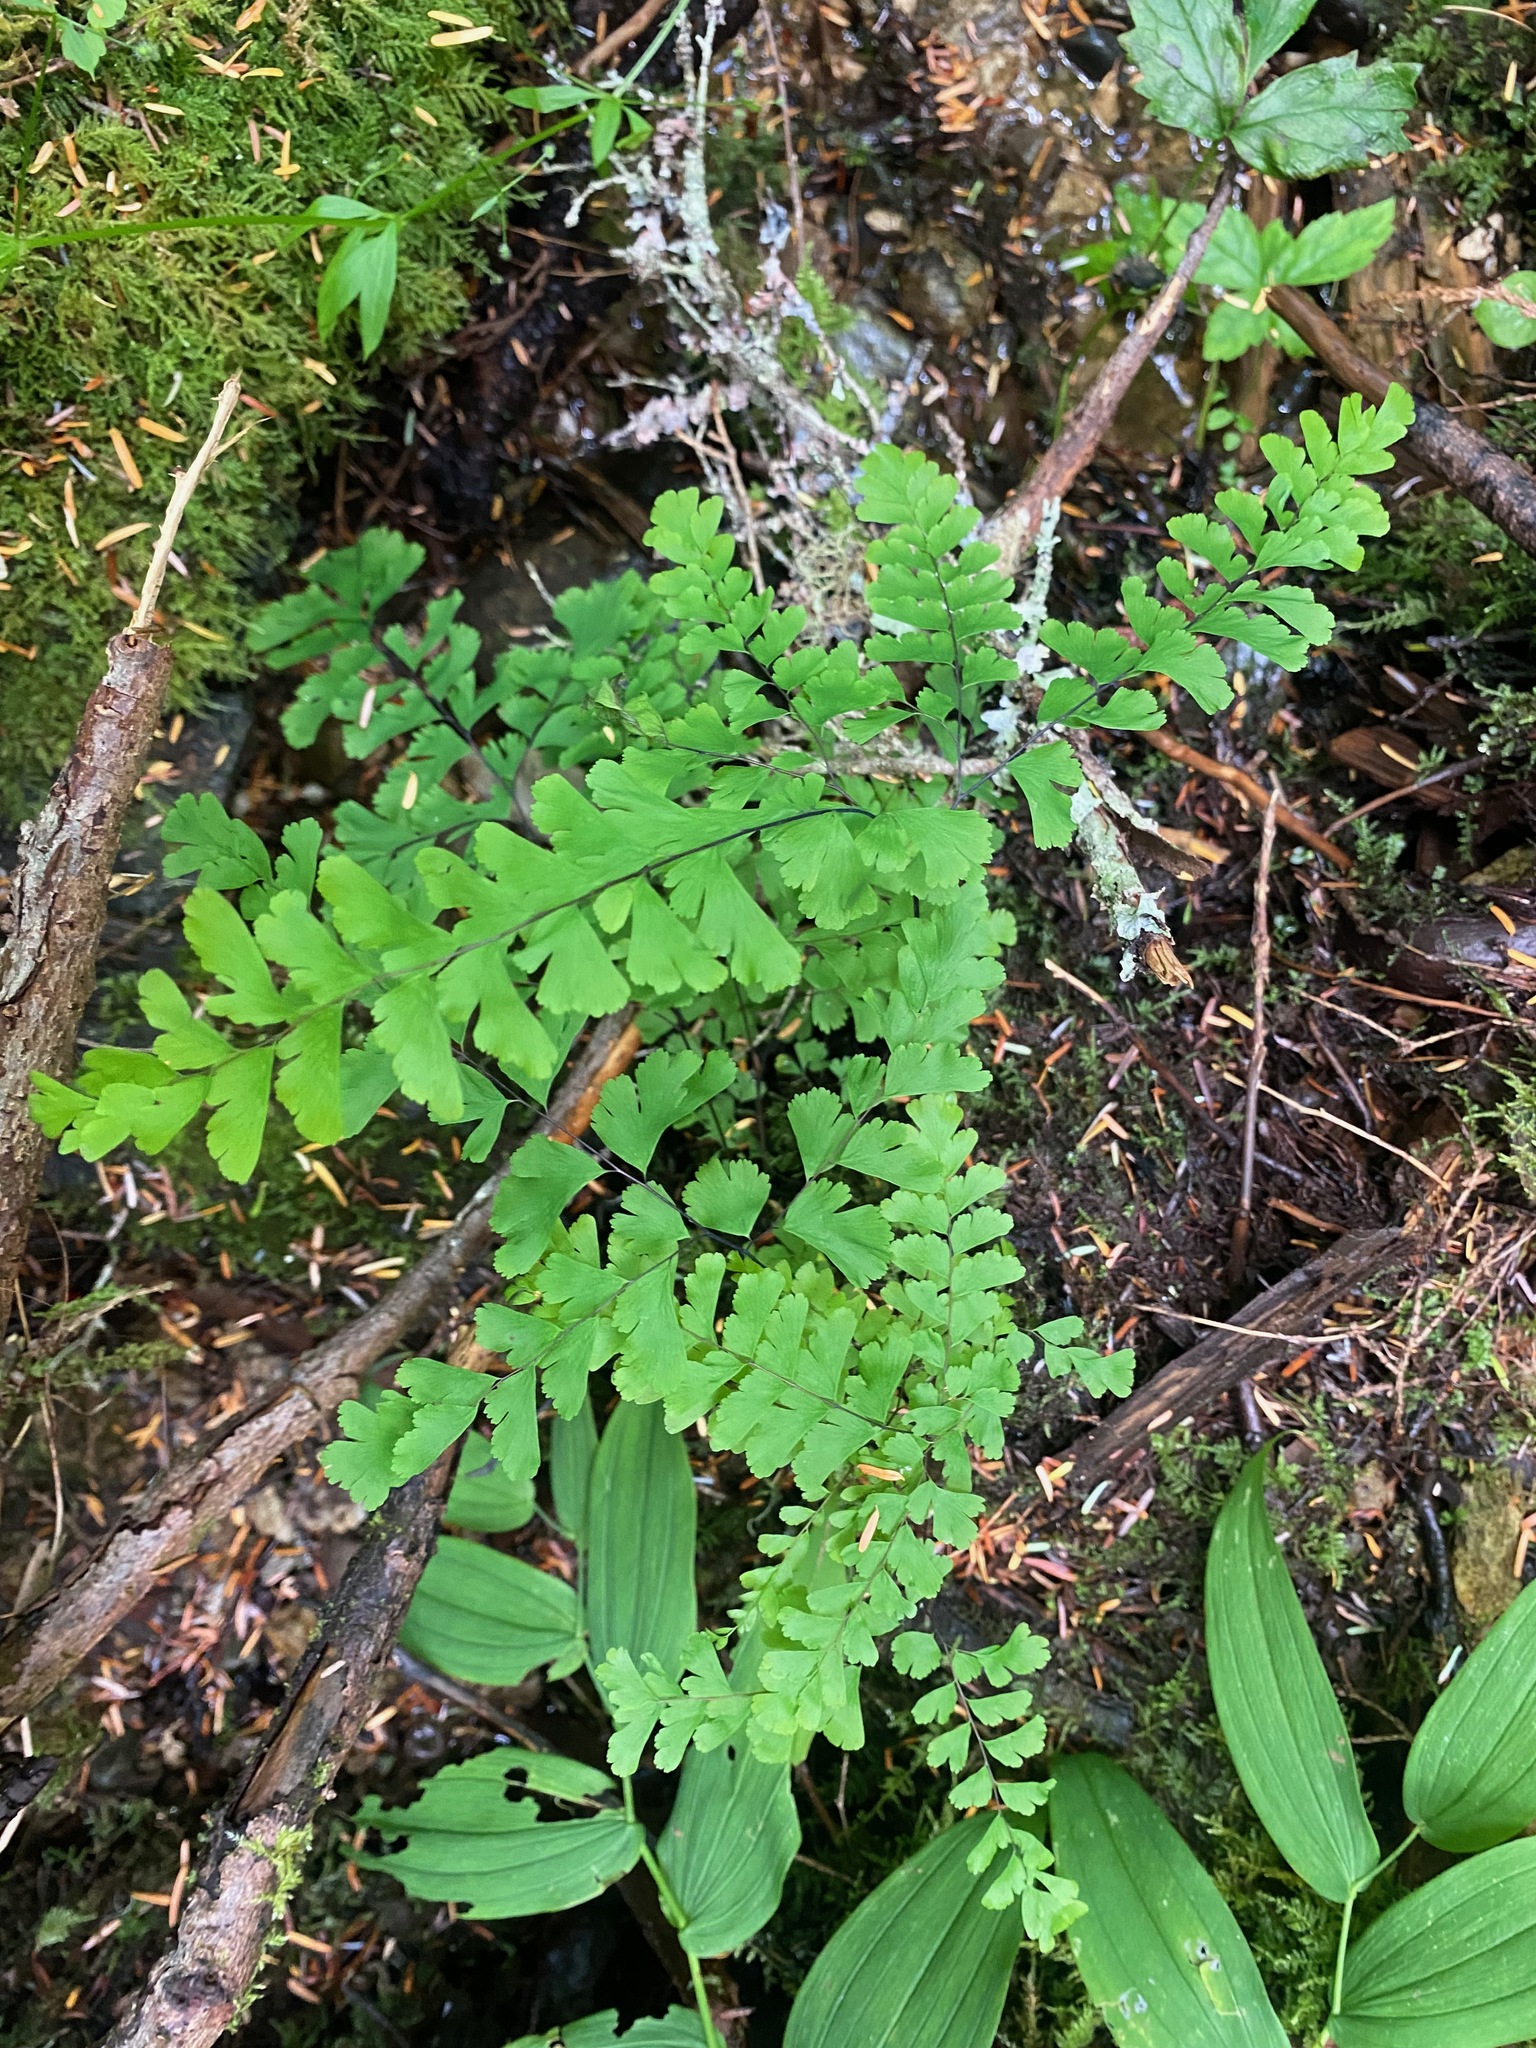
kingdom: Plantae
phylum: Tracheophyta
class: Polypodiopsida
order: Polypodiales
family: Pteridaceae
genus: Adiantum
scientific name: Adiantum aleuticum
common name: Aleutian maidenhair fern
